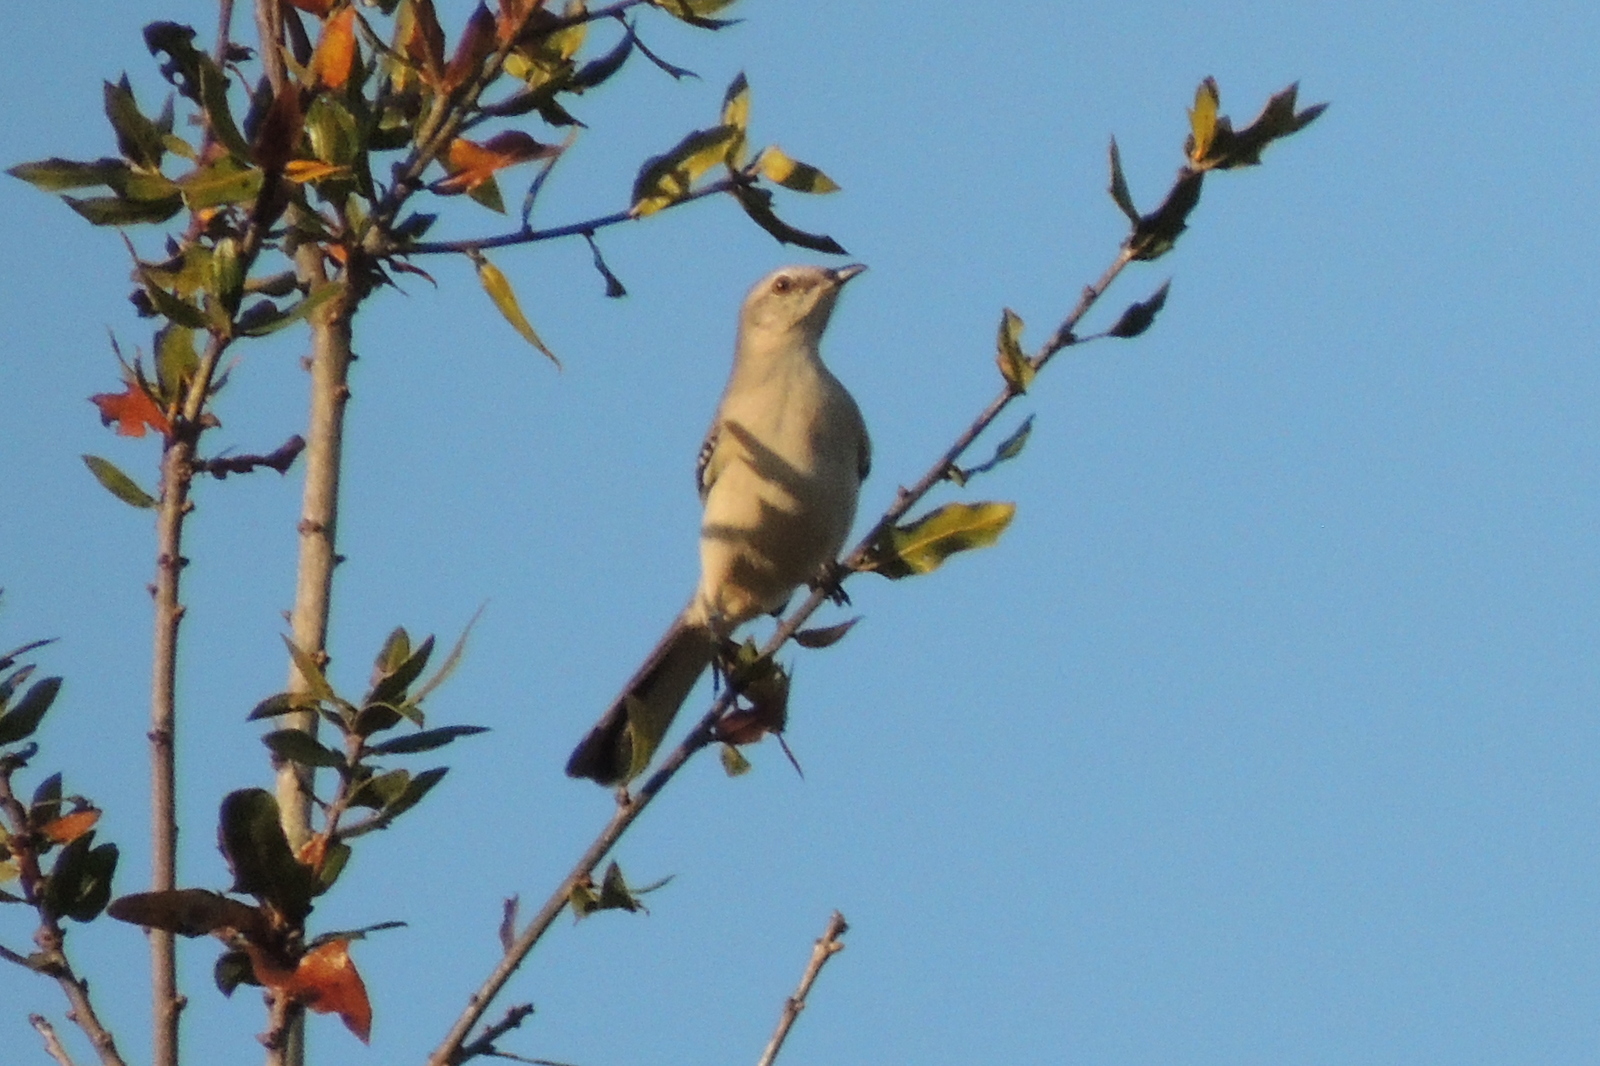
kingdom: Animalia
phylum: Chordata
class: Aves
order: Passeriformes
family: Mimidae
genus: Mimus
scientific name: Mimus polyglottos
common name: Northern mockingbird
